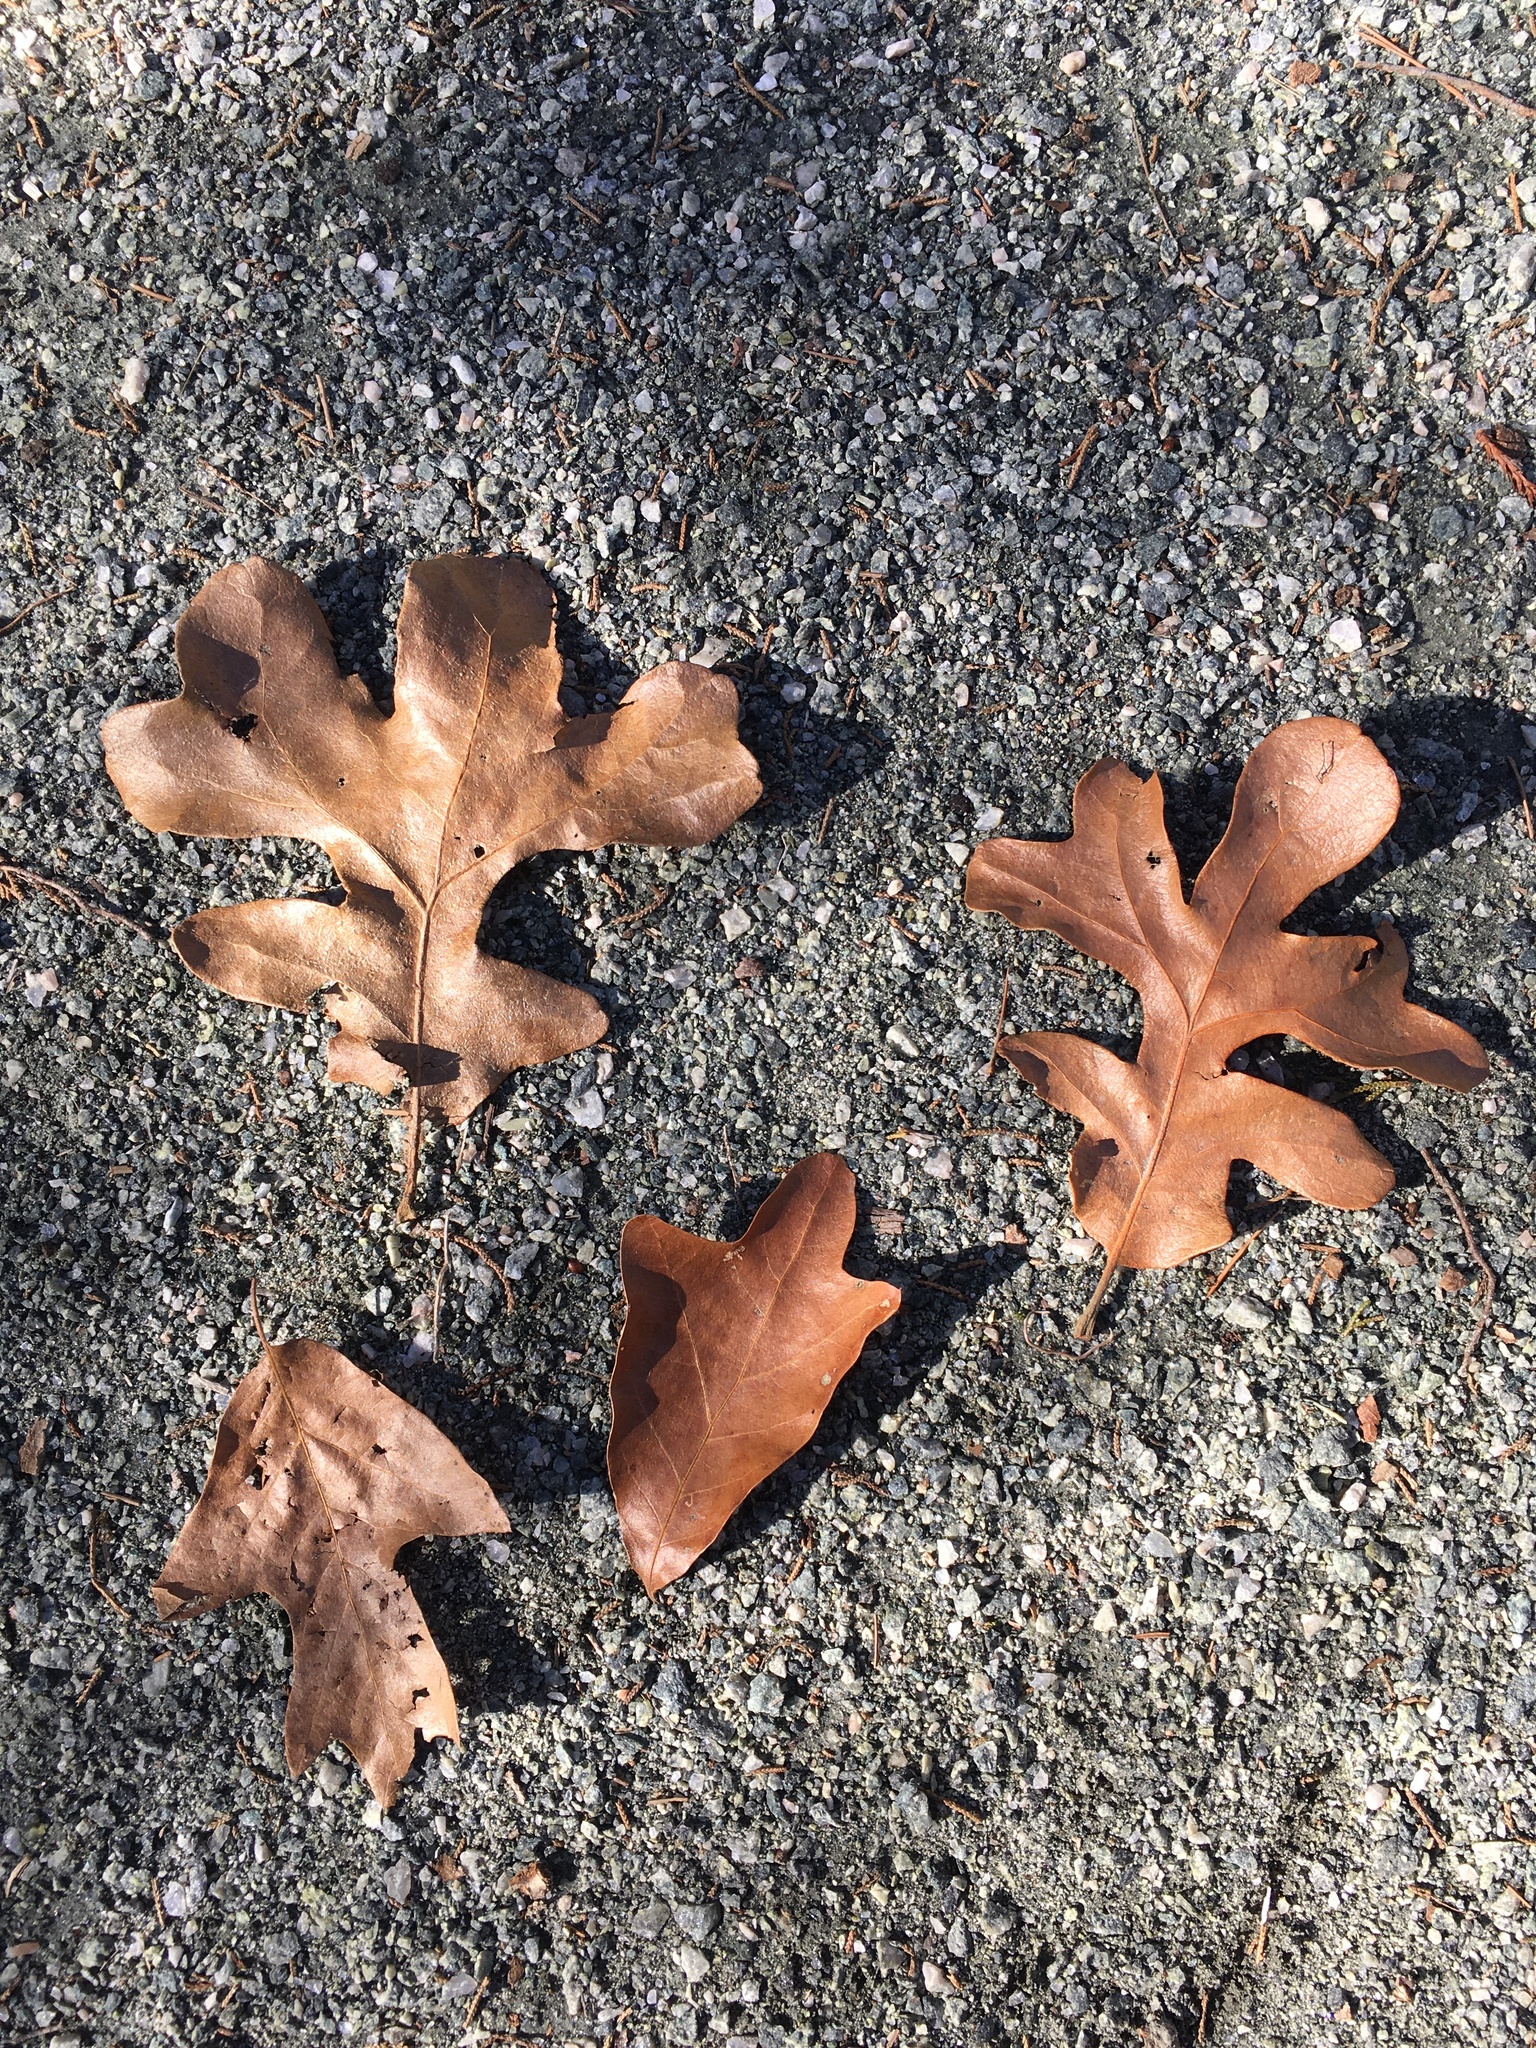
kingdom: Plantae
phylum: Tracheophyta
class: Magnoliopsida
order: Fagales
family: Fagaceae
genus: Quercus
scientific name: Quercus stellata
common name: Post oak
